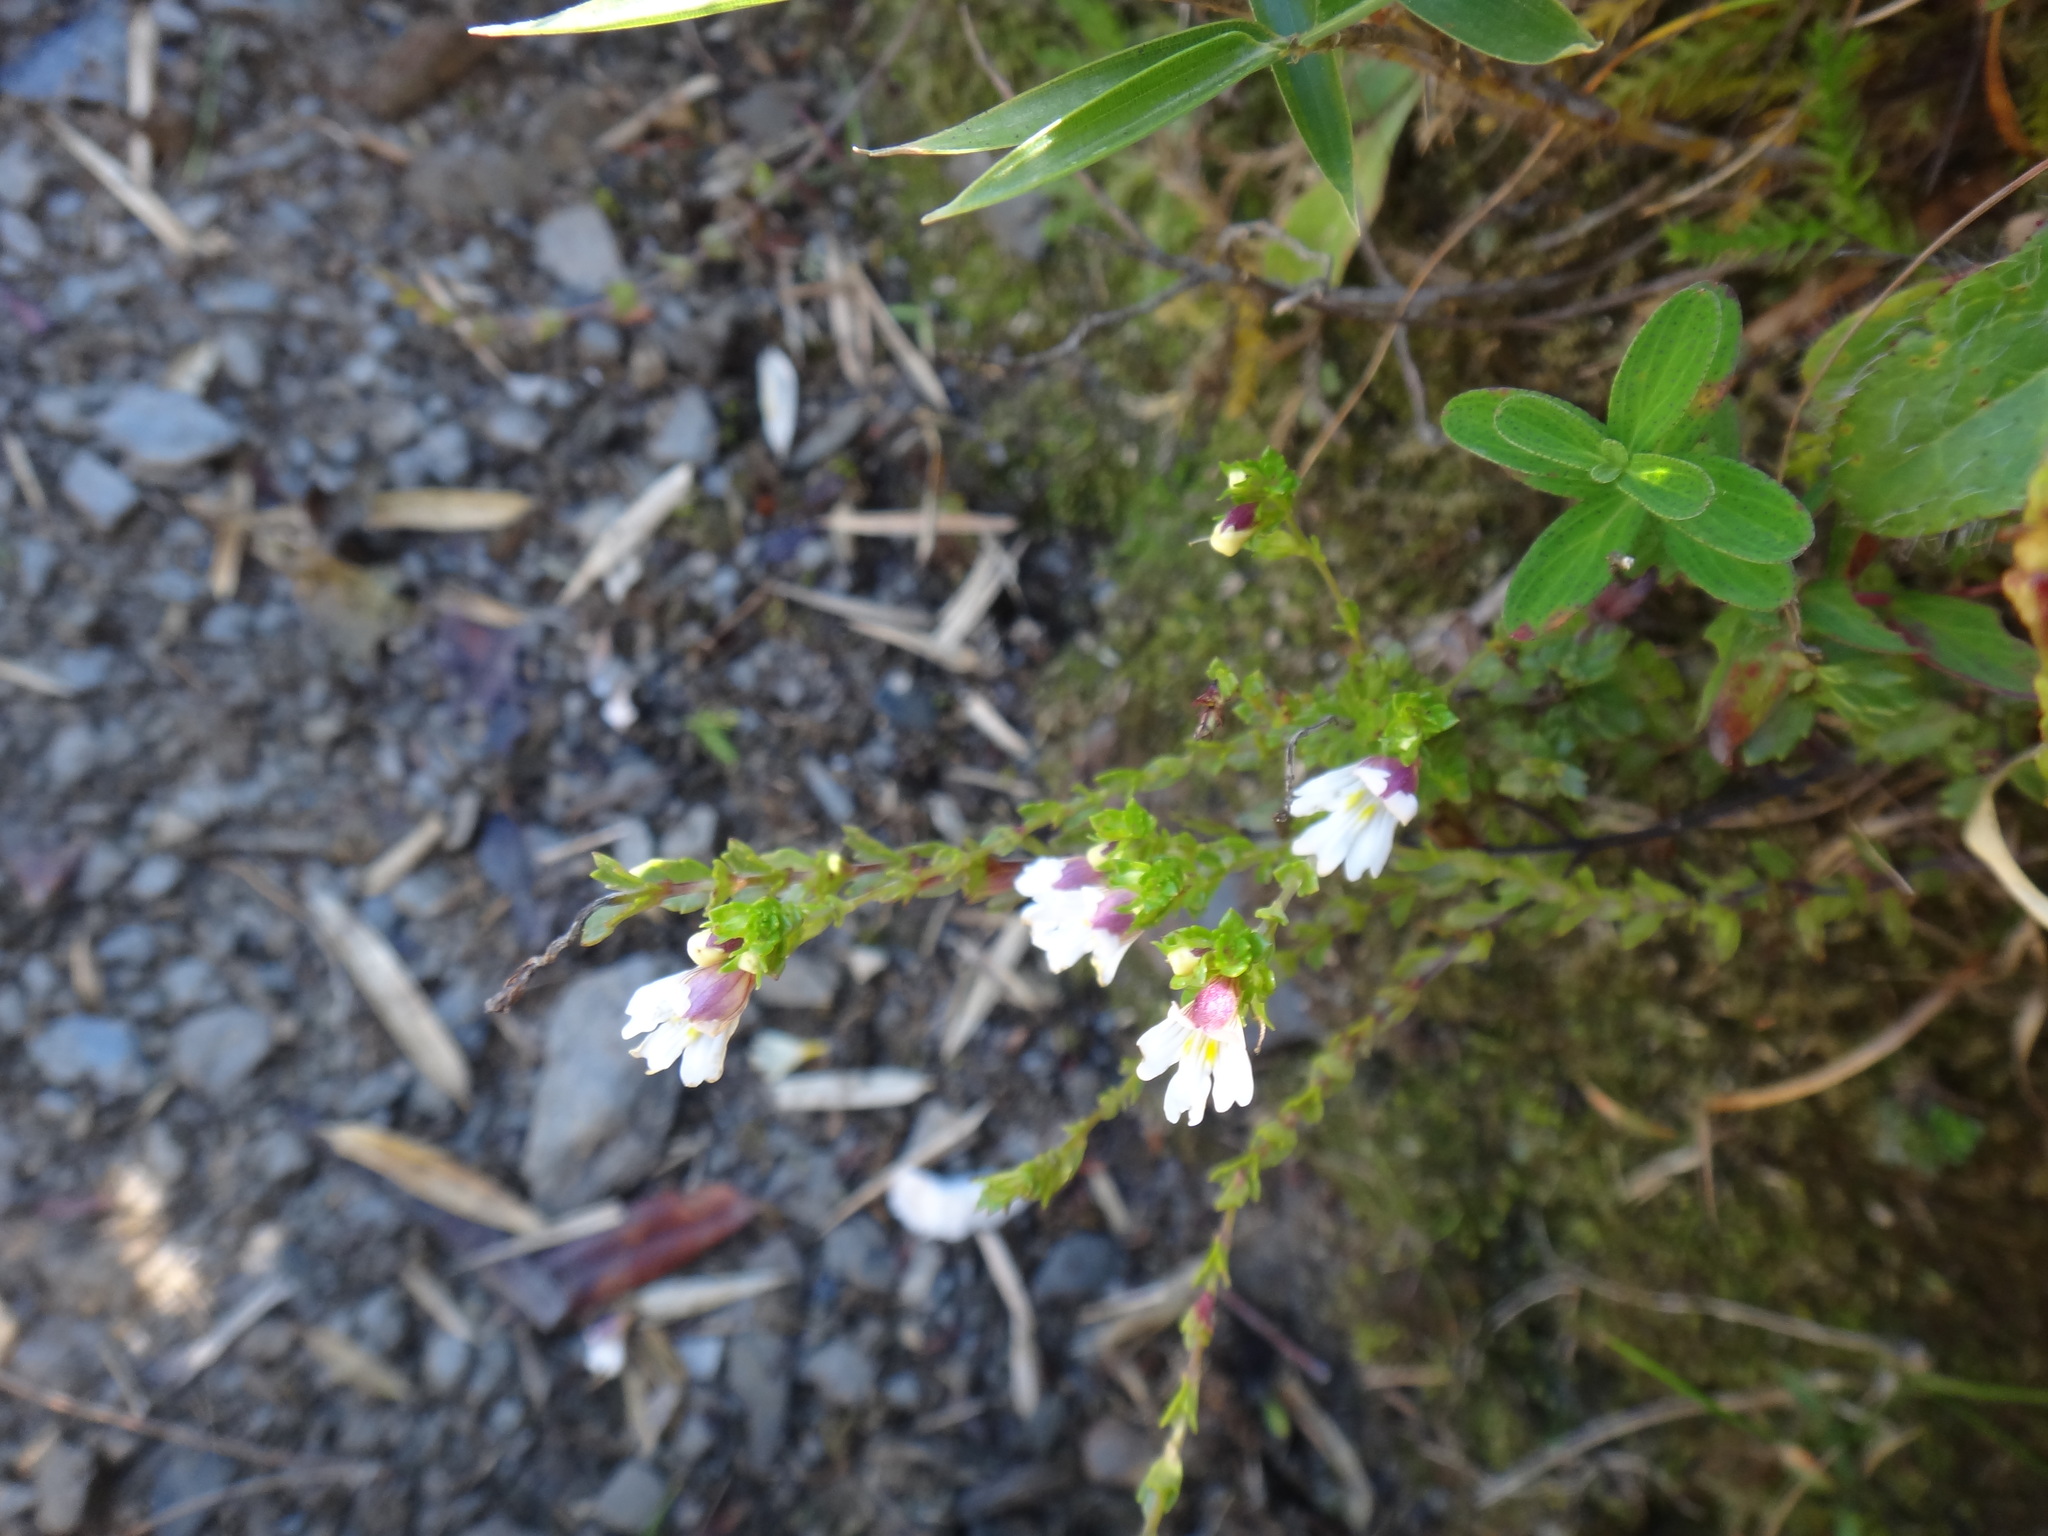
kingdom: Plantae
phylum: Tracheophyta
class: Magnoliopsida
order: Lamiales
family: Orobanchaceae
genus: Euphrasia
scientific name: Euphrasia transmorrisonensis
